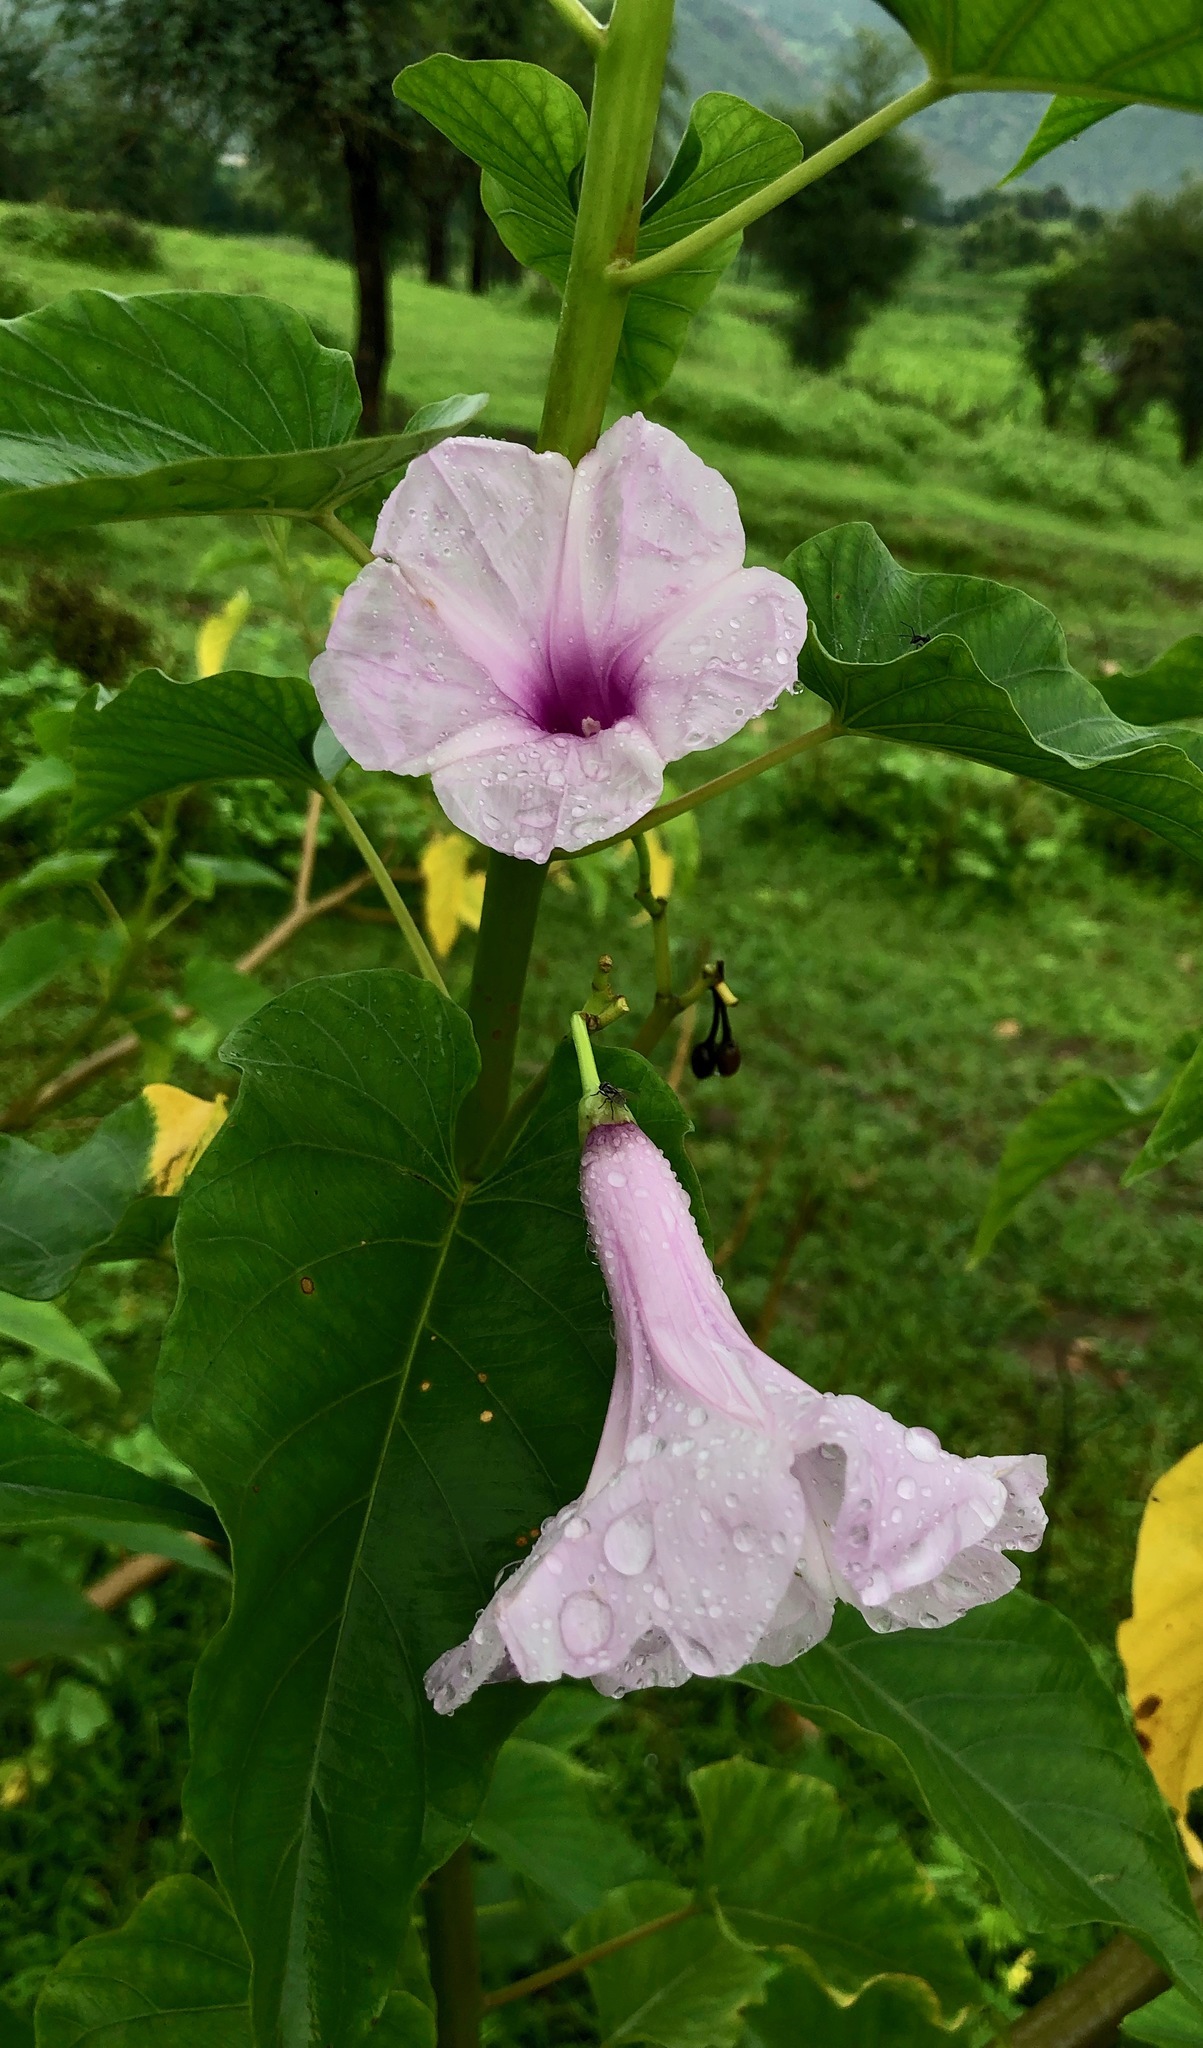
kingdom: Plantae
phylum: Tracheophyta
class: Magnoliopsida
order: Solanales
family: Convolvulaceae
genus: Ipomoea
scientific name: Ipomoea carnea
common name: Morning-glory
